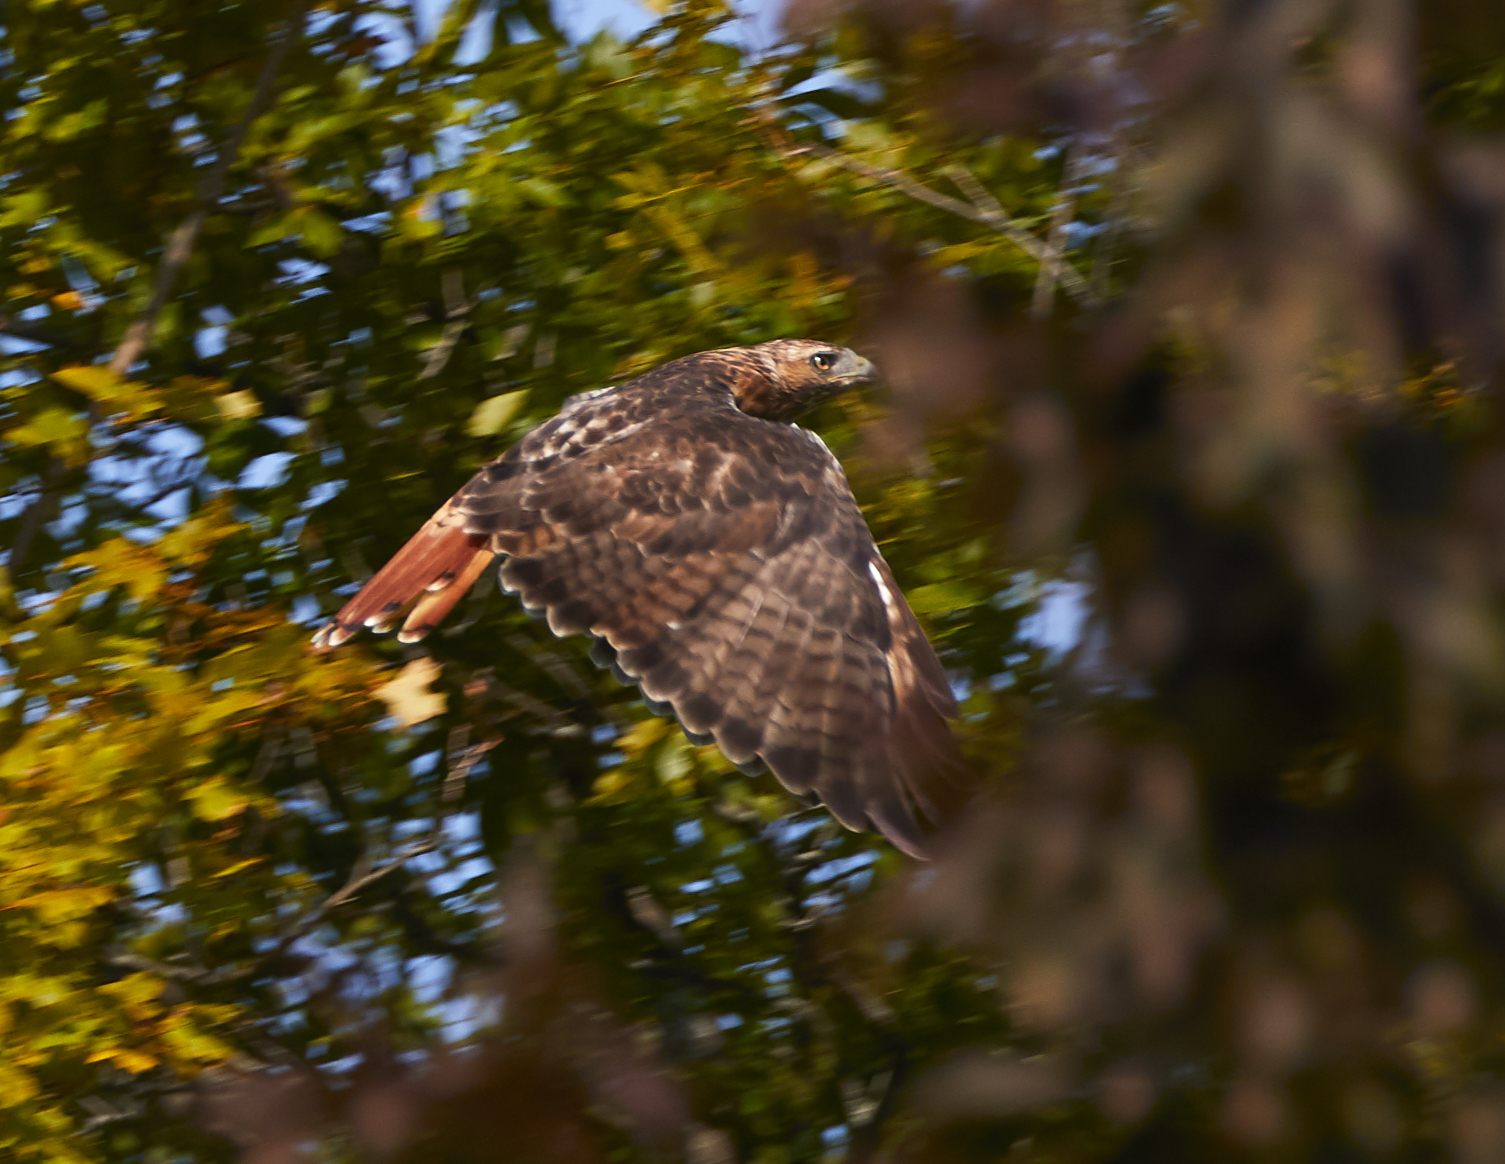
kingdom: Animalia
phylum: Chordata
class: Aves
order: Accipitriformes
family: Accipitridae
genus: Buteo
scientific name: Buteo jamaicensis
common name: Red-tailed hawk
